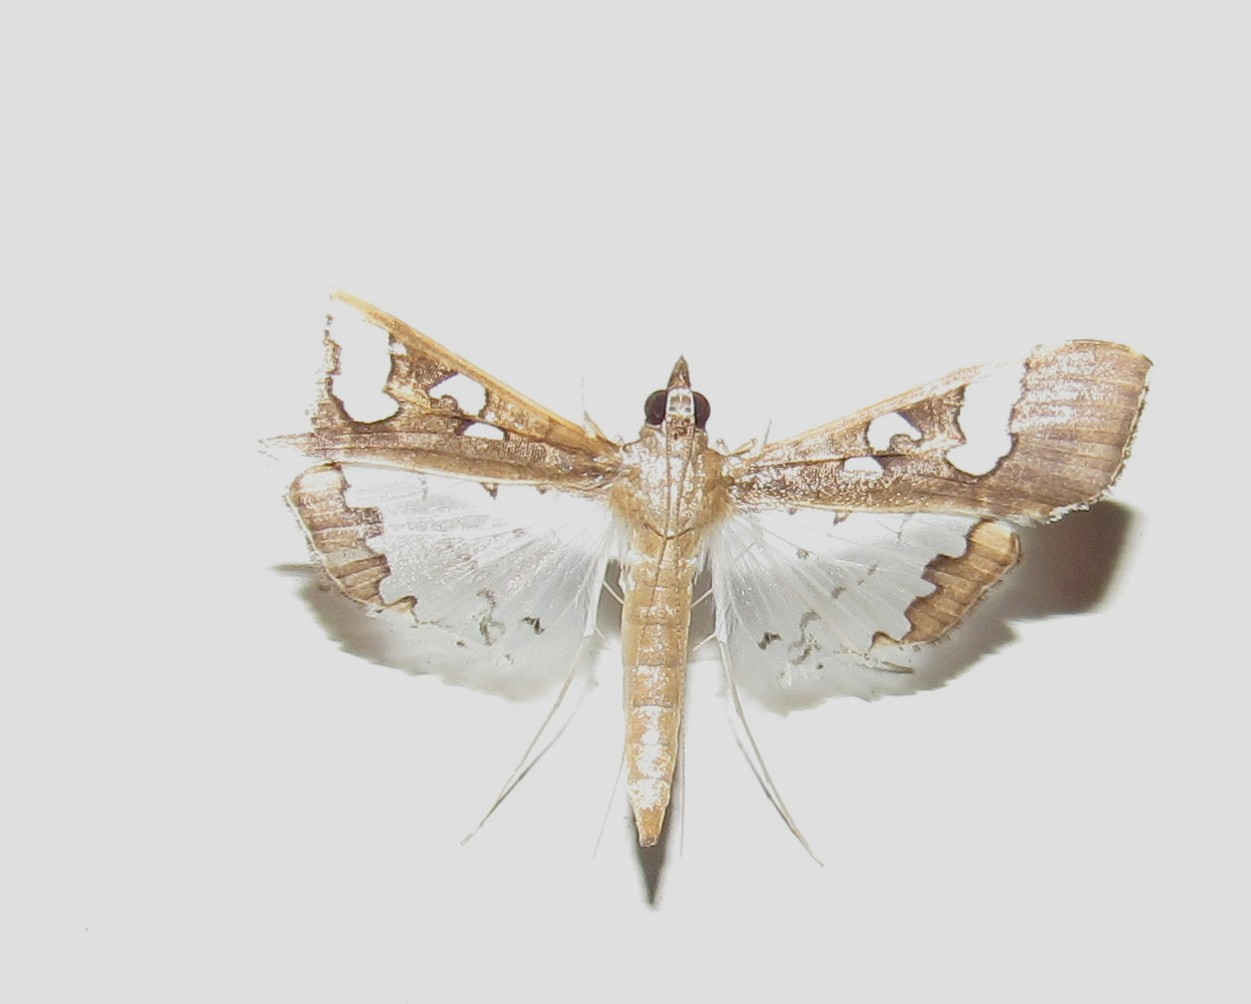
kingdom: Animalia
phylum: Arthropoda
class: Insecta
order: Lepidoptera
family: Crambidae
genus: Maruca
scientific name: Maruca vitrata
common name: Maruca pod borer
